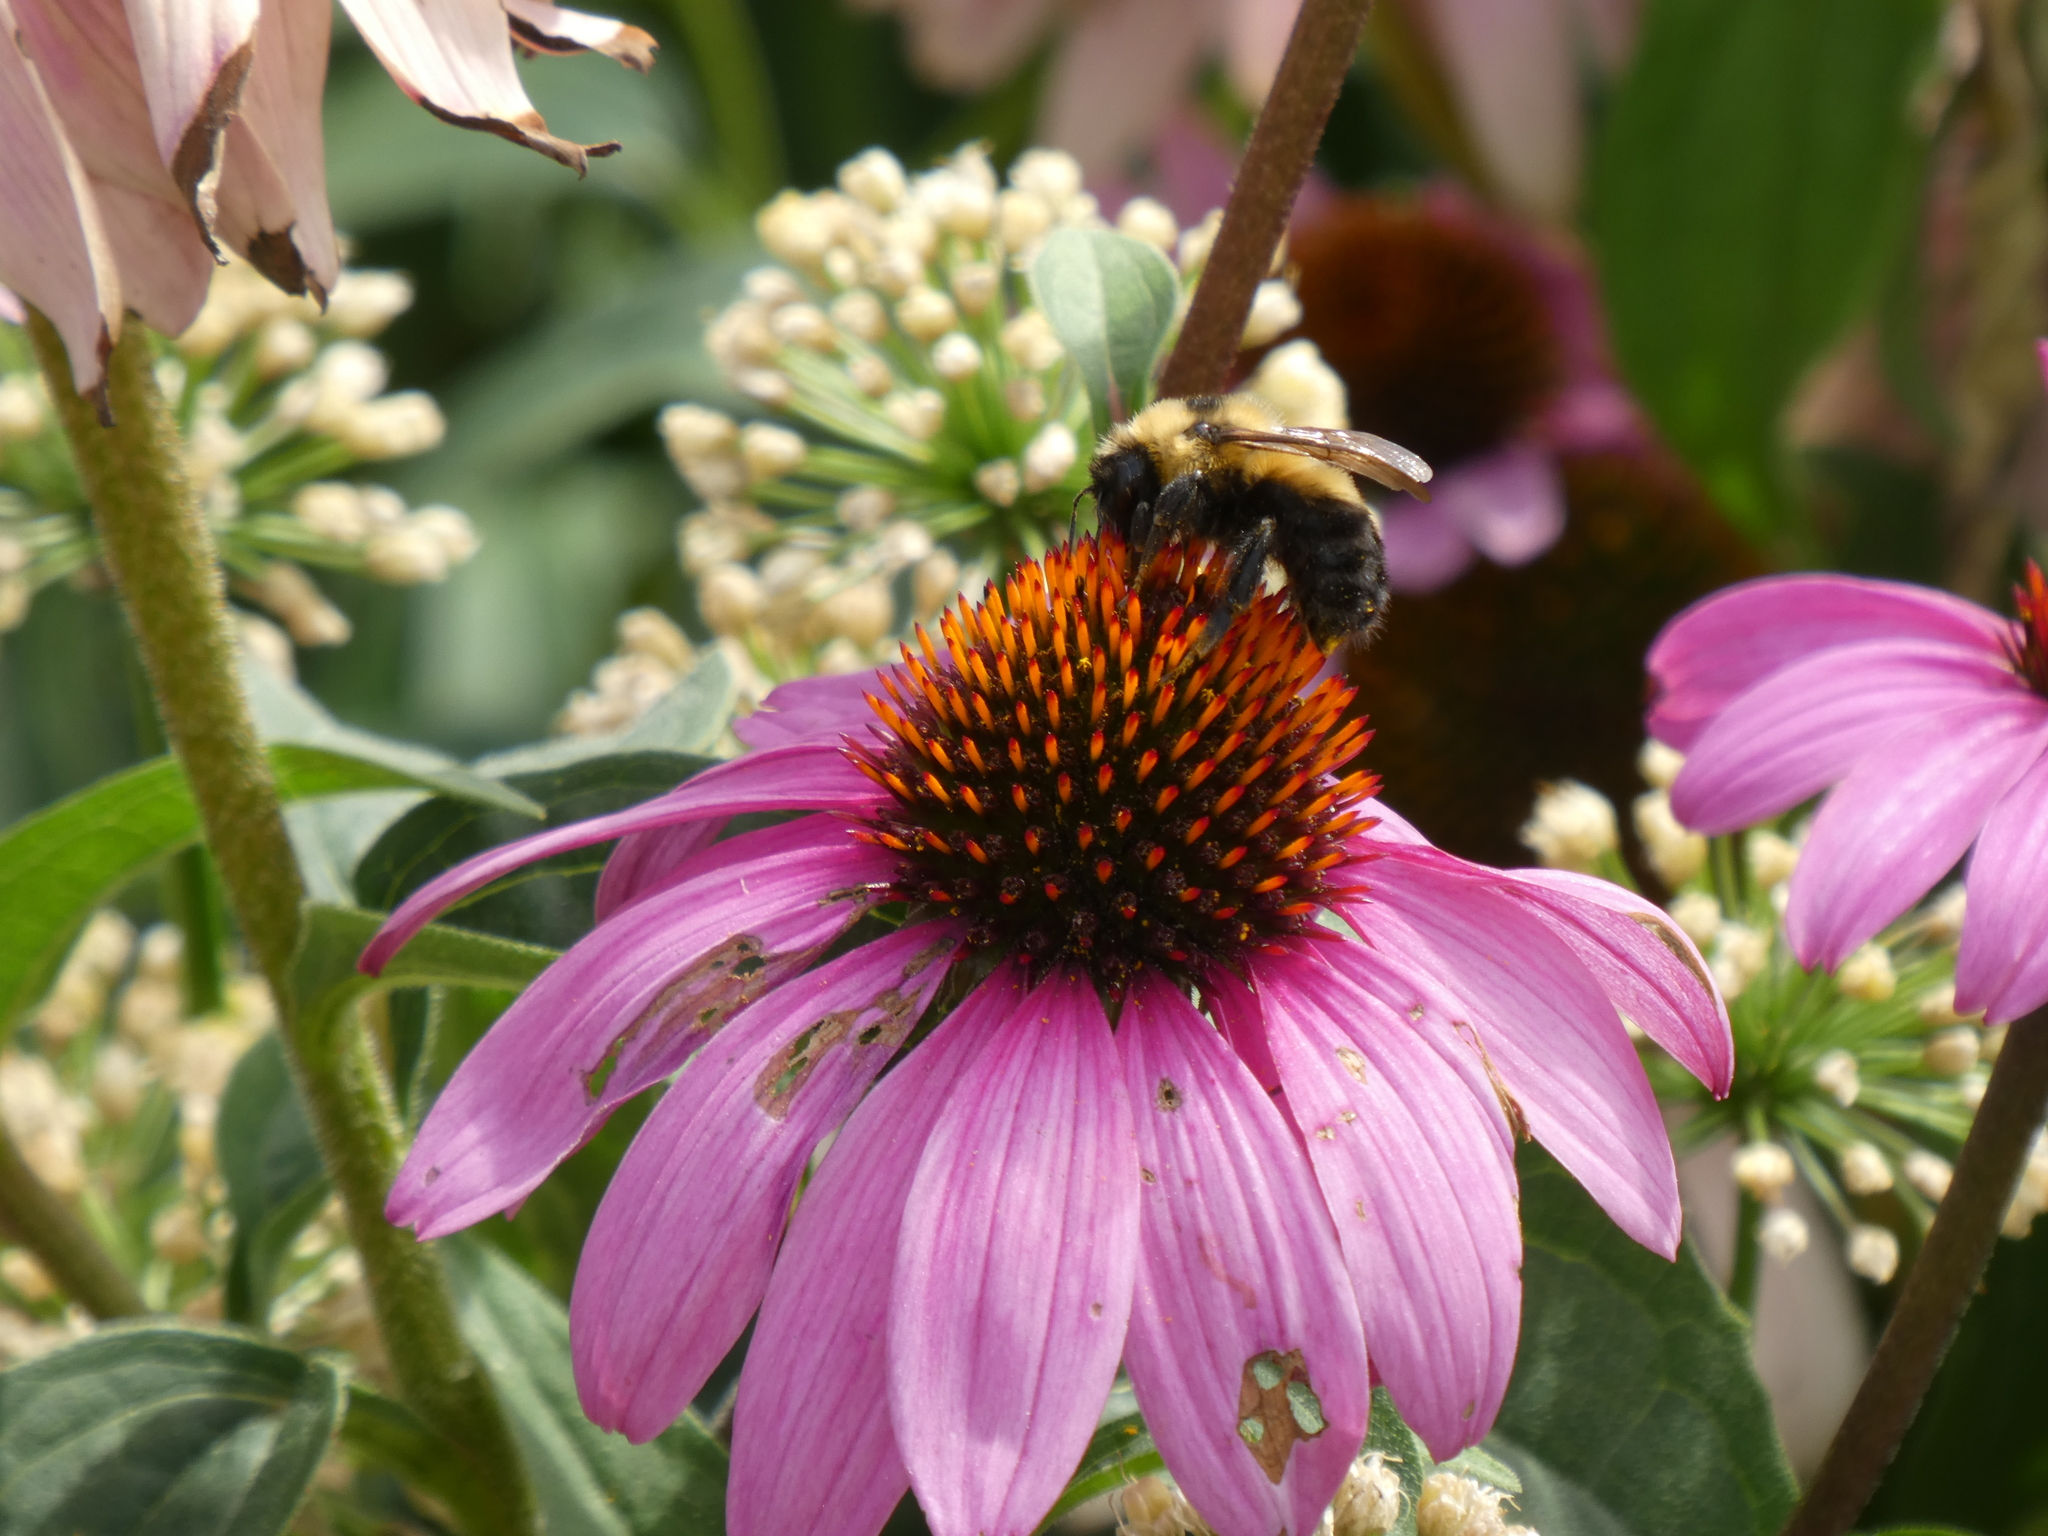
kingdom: Animalia
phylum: Arthropoda
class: Insecta
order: Hymenoptera
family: Apidae
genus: Bombus
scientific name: Bombus rufocinctus
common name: Red-belted bumble bee
